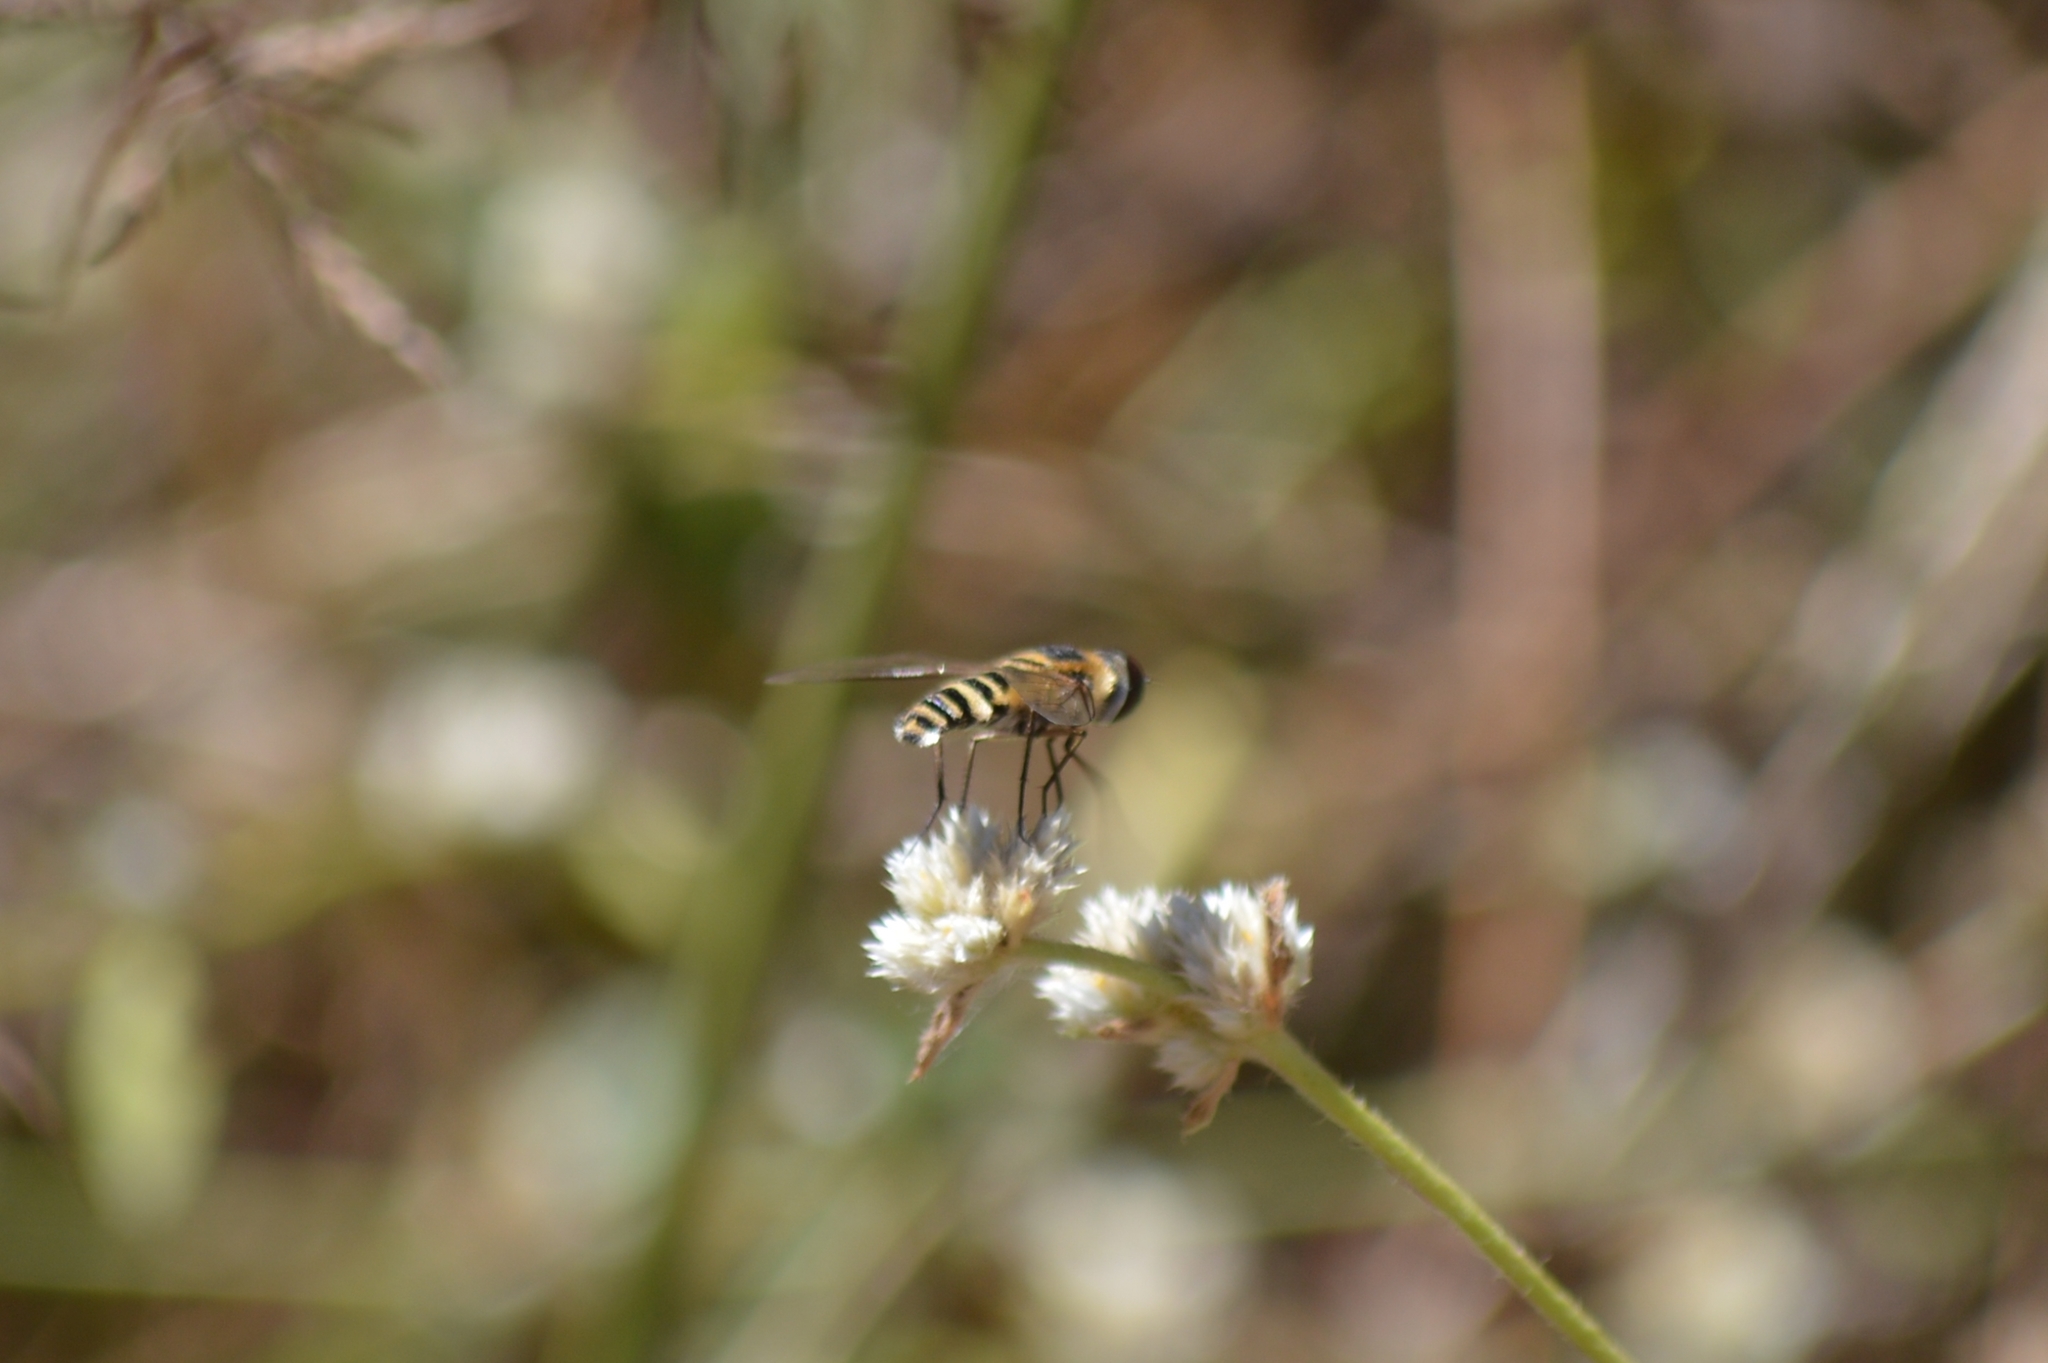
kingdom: Animalia
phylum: Arthropoda
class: Insecta
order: Diptera
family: Bombyliidae
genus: Villa
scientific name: Villa
